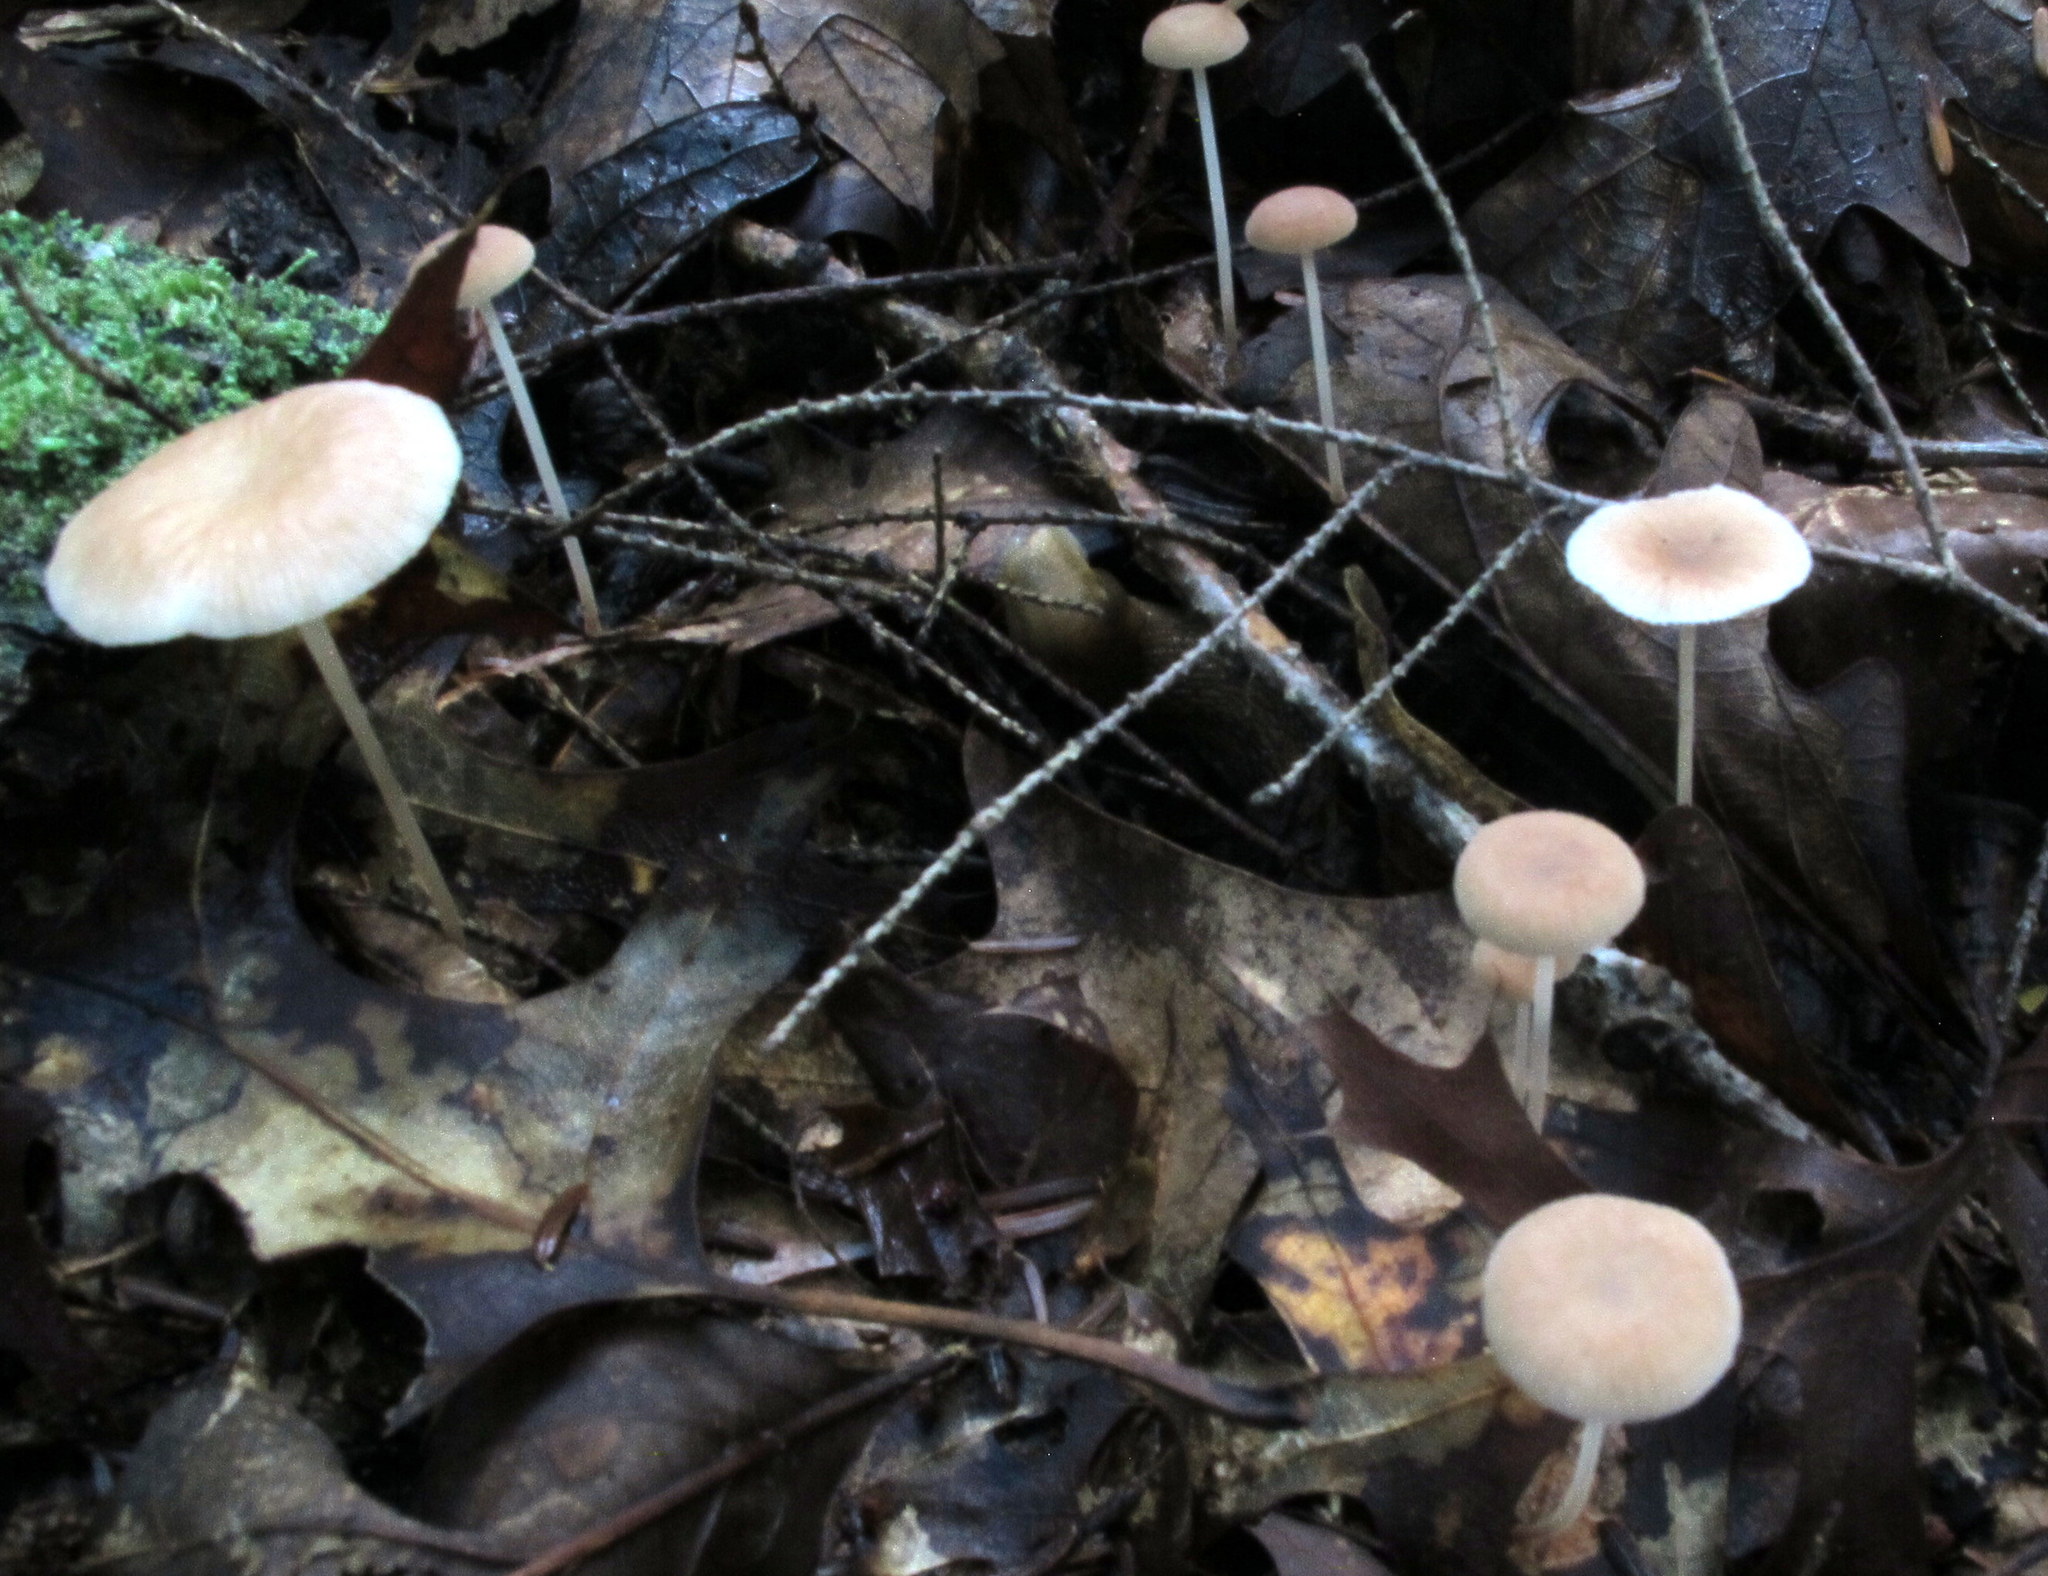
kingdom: Fungi
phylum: Basidiomycota
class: Agaricomycetes
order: Agaricales
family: Omphalotaceae
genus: Collybiopsis
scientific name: Collybiopsis subnuda
